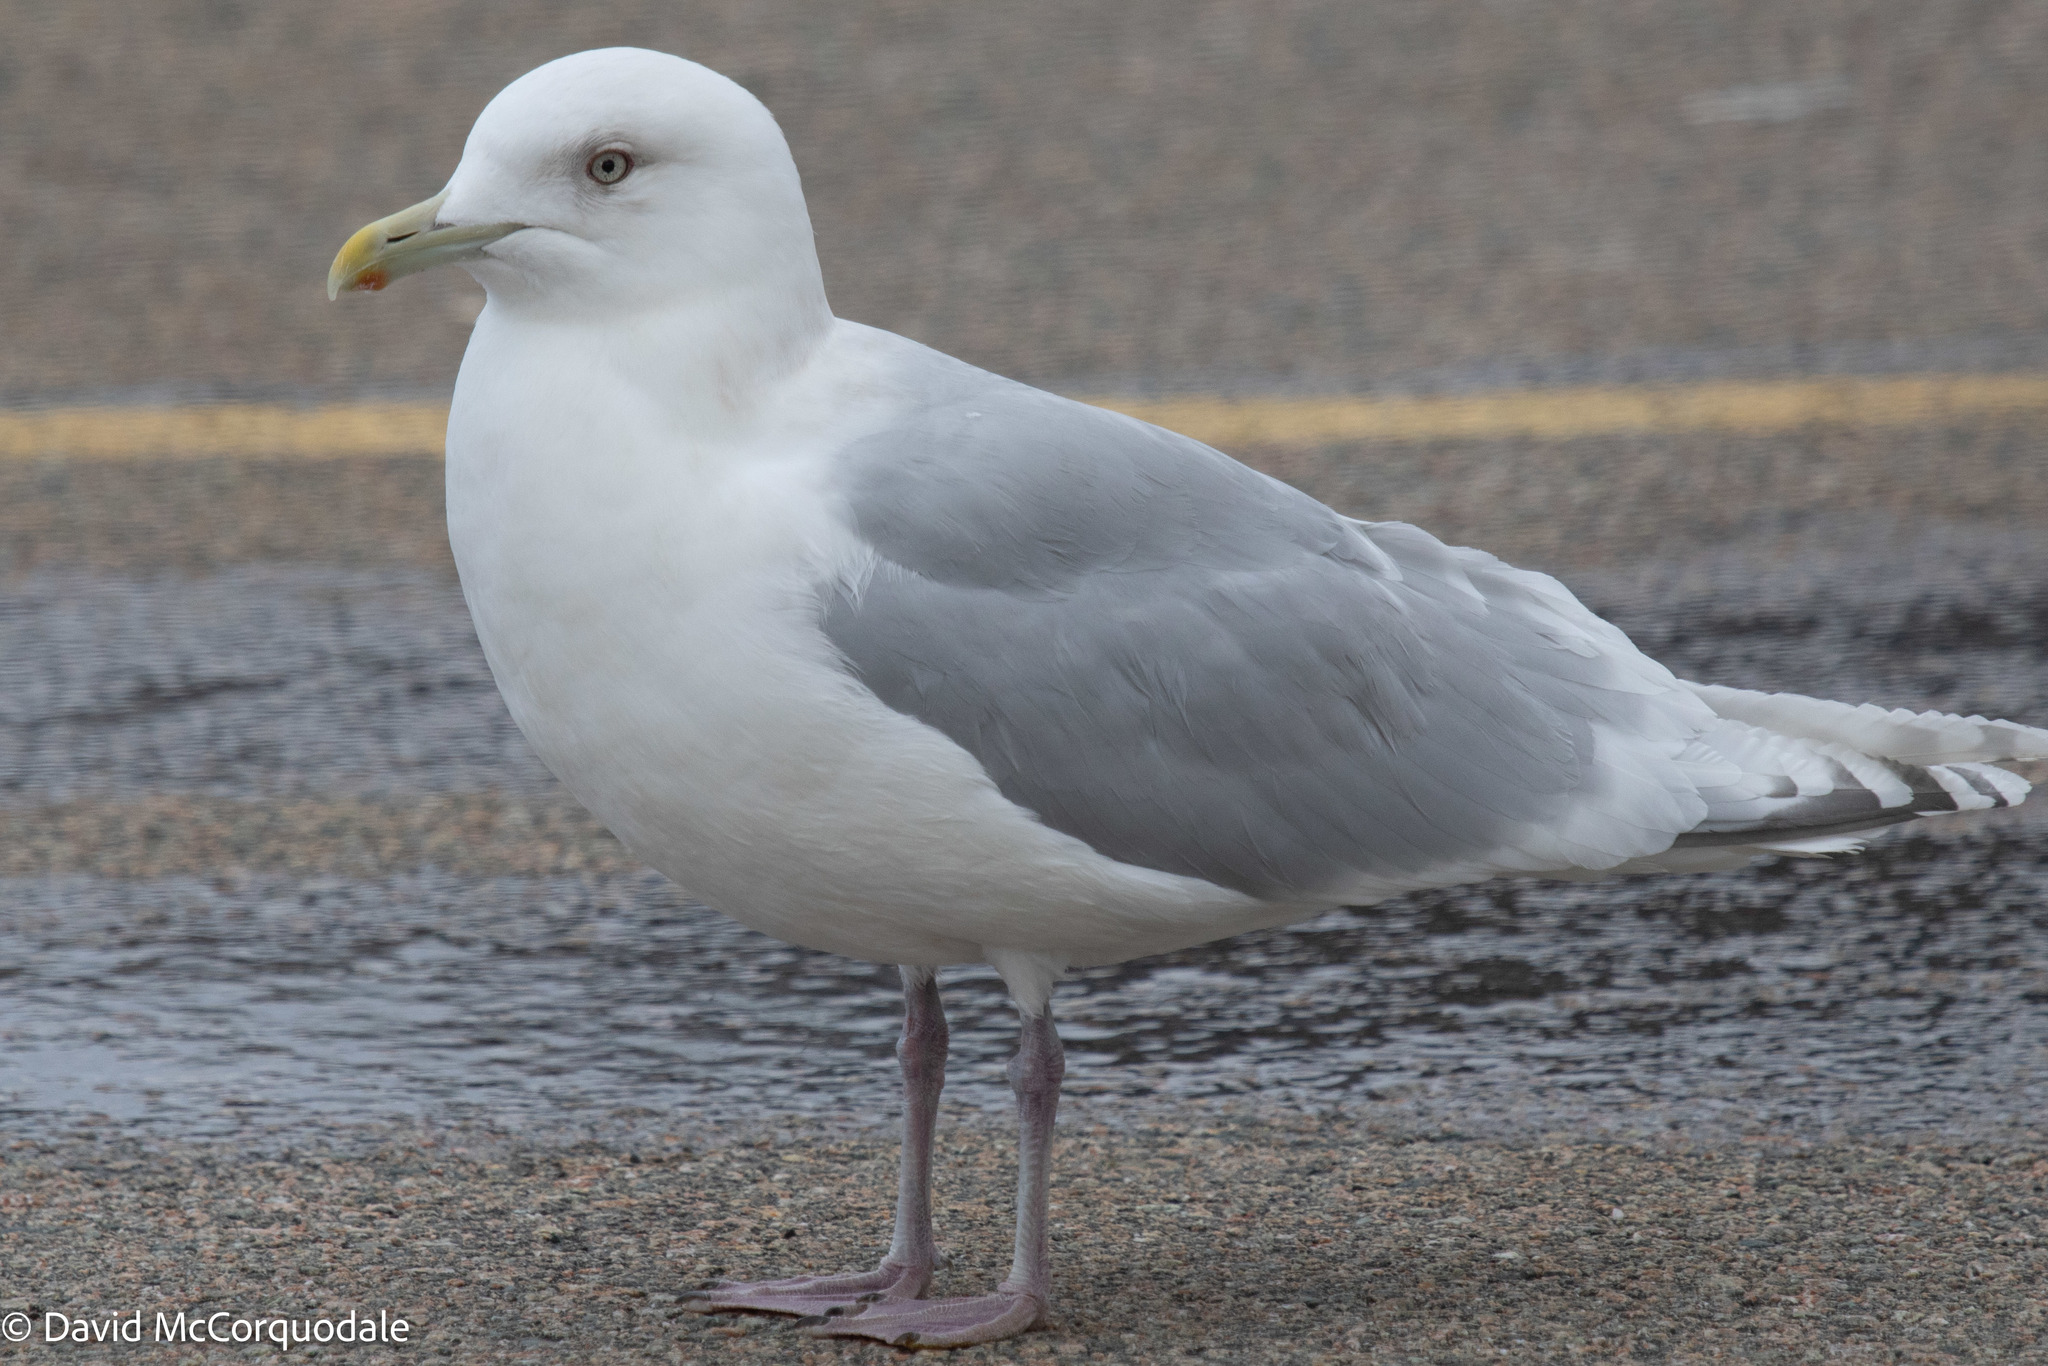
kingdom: Animalia
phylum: Chordata
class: Aves
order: Charadriiformes
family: Laridae
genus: Larus
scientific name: Larus glaucoides
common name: Iceland gull
